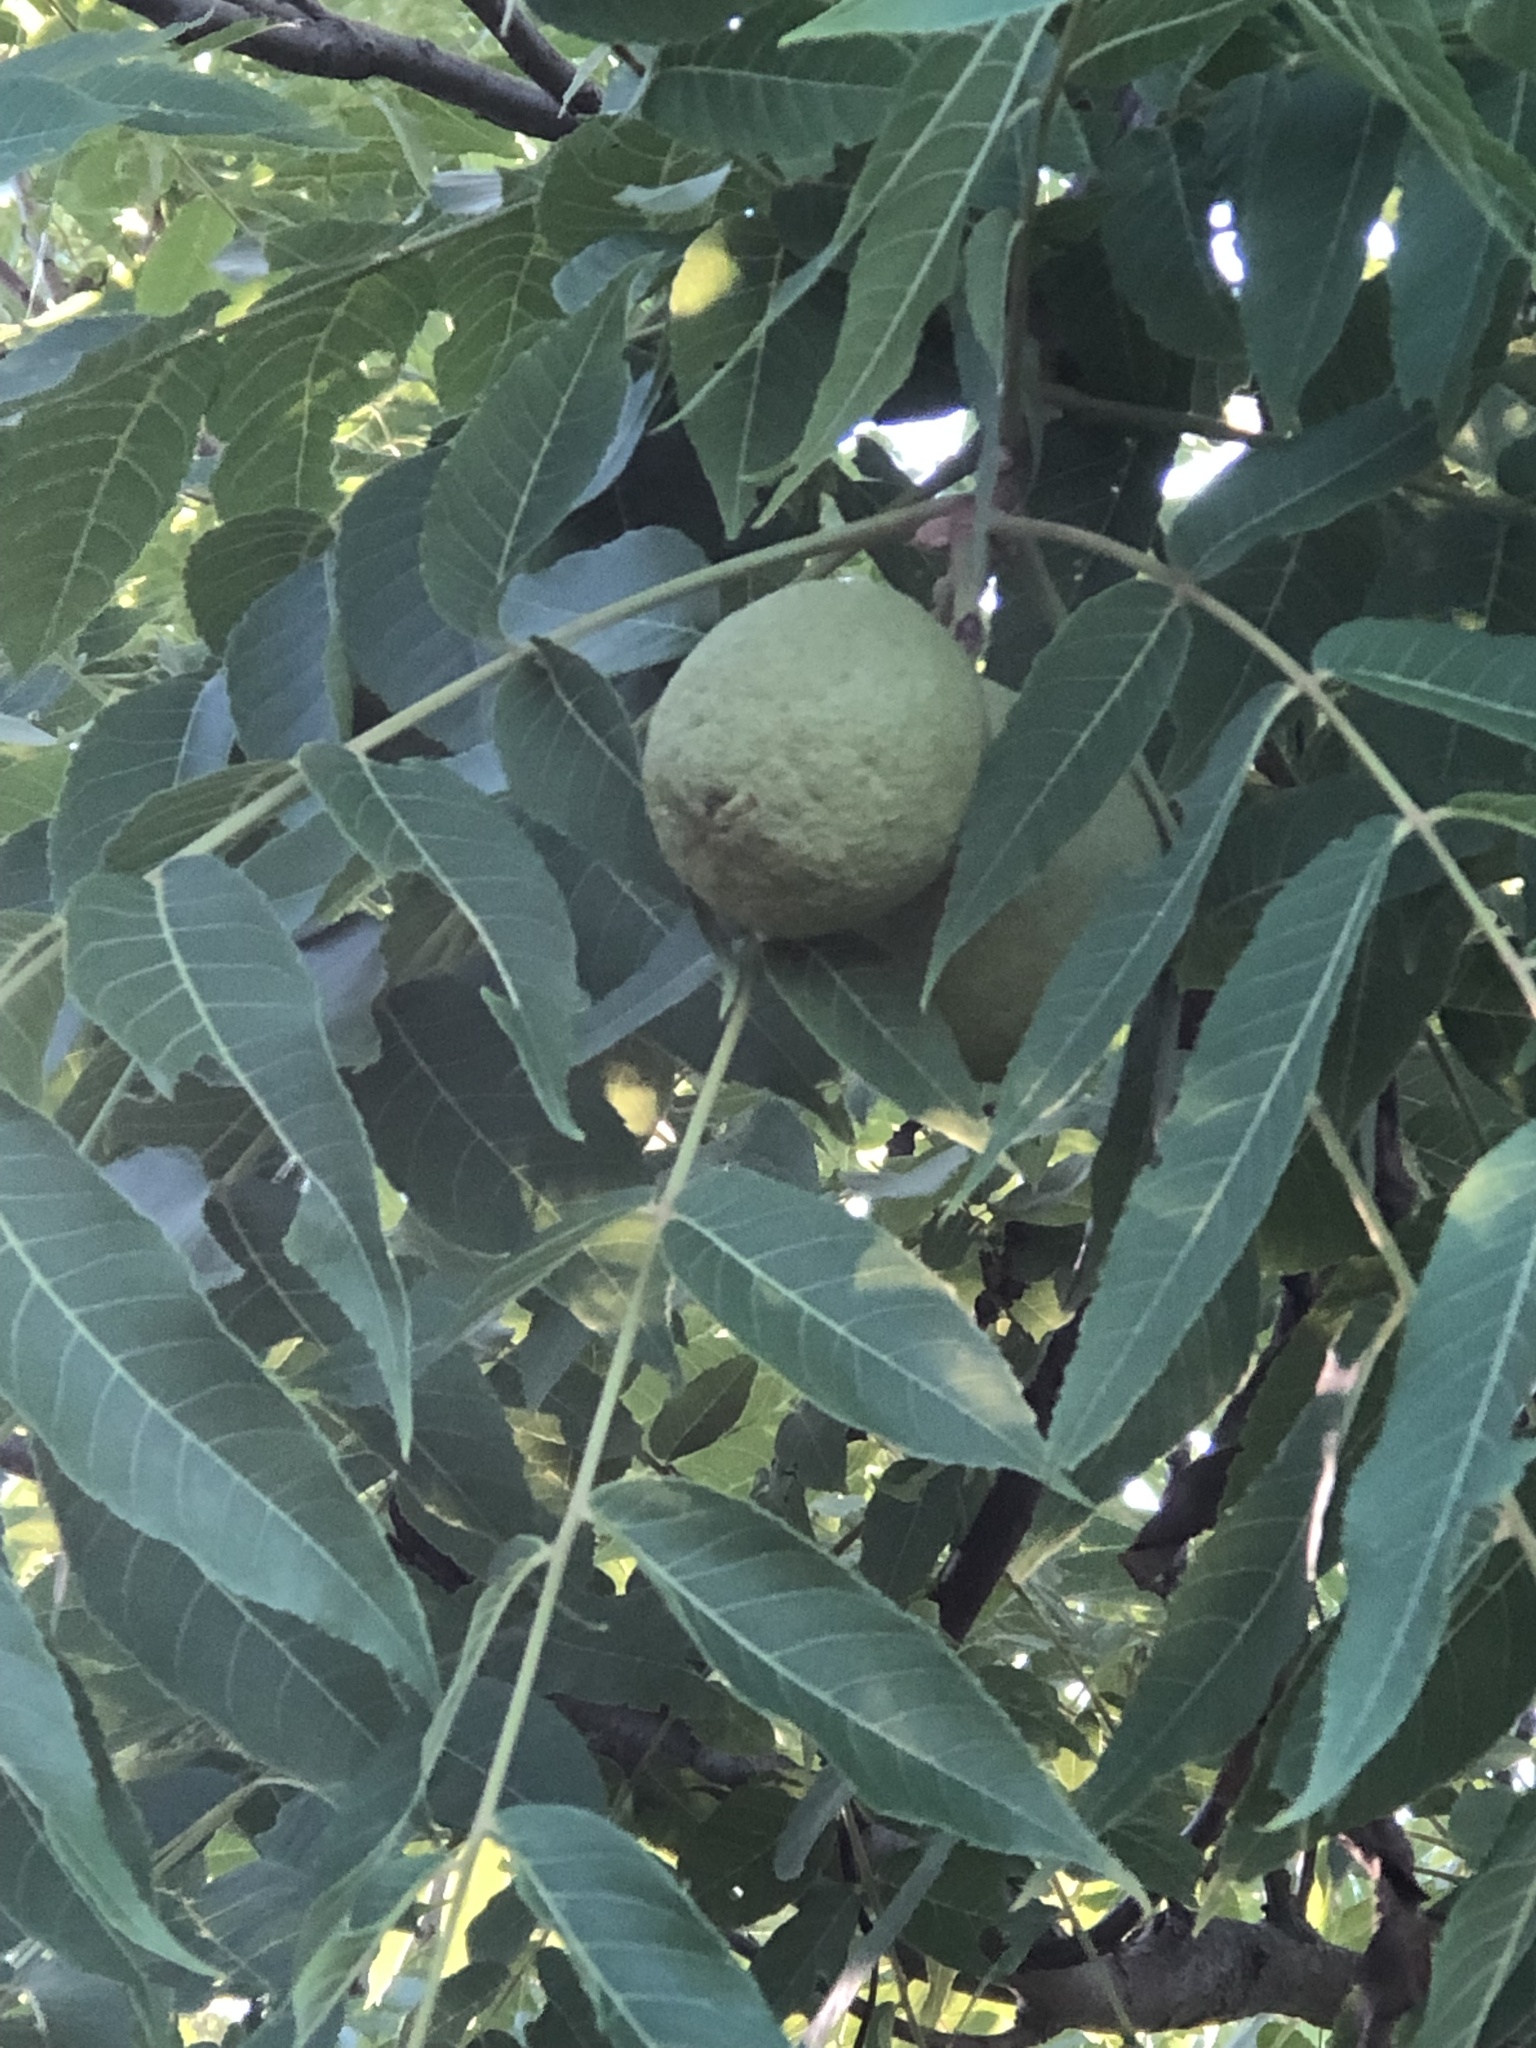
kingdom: Plantae
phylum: Tracheophyta
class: Magnoliopsida
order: Fagales
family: Juglandaceae
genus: Juglans
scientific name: Juglans nigra
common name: Black walnut
